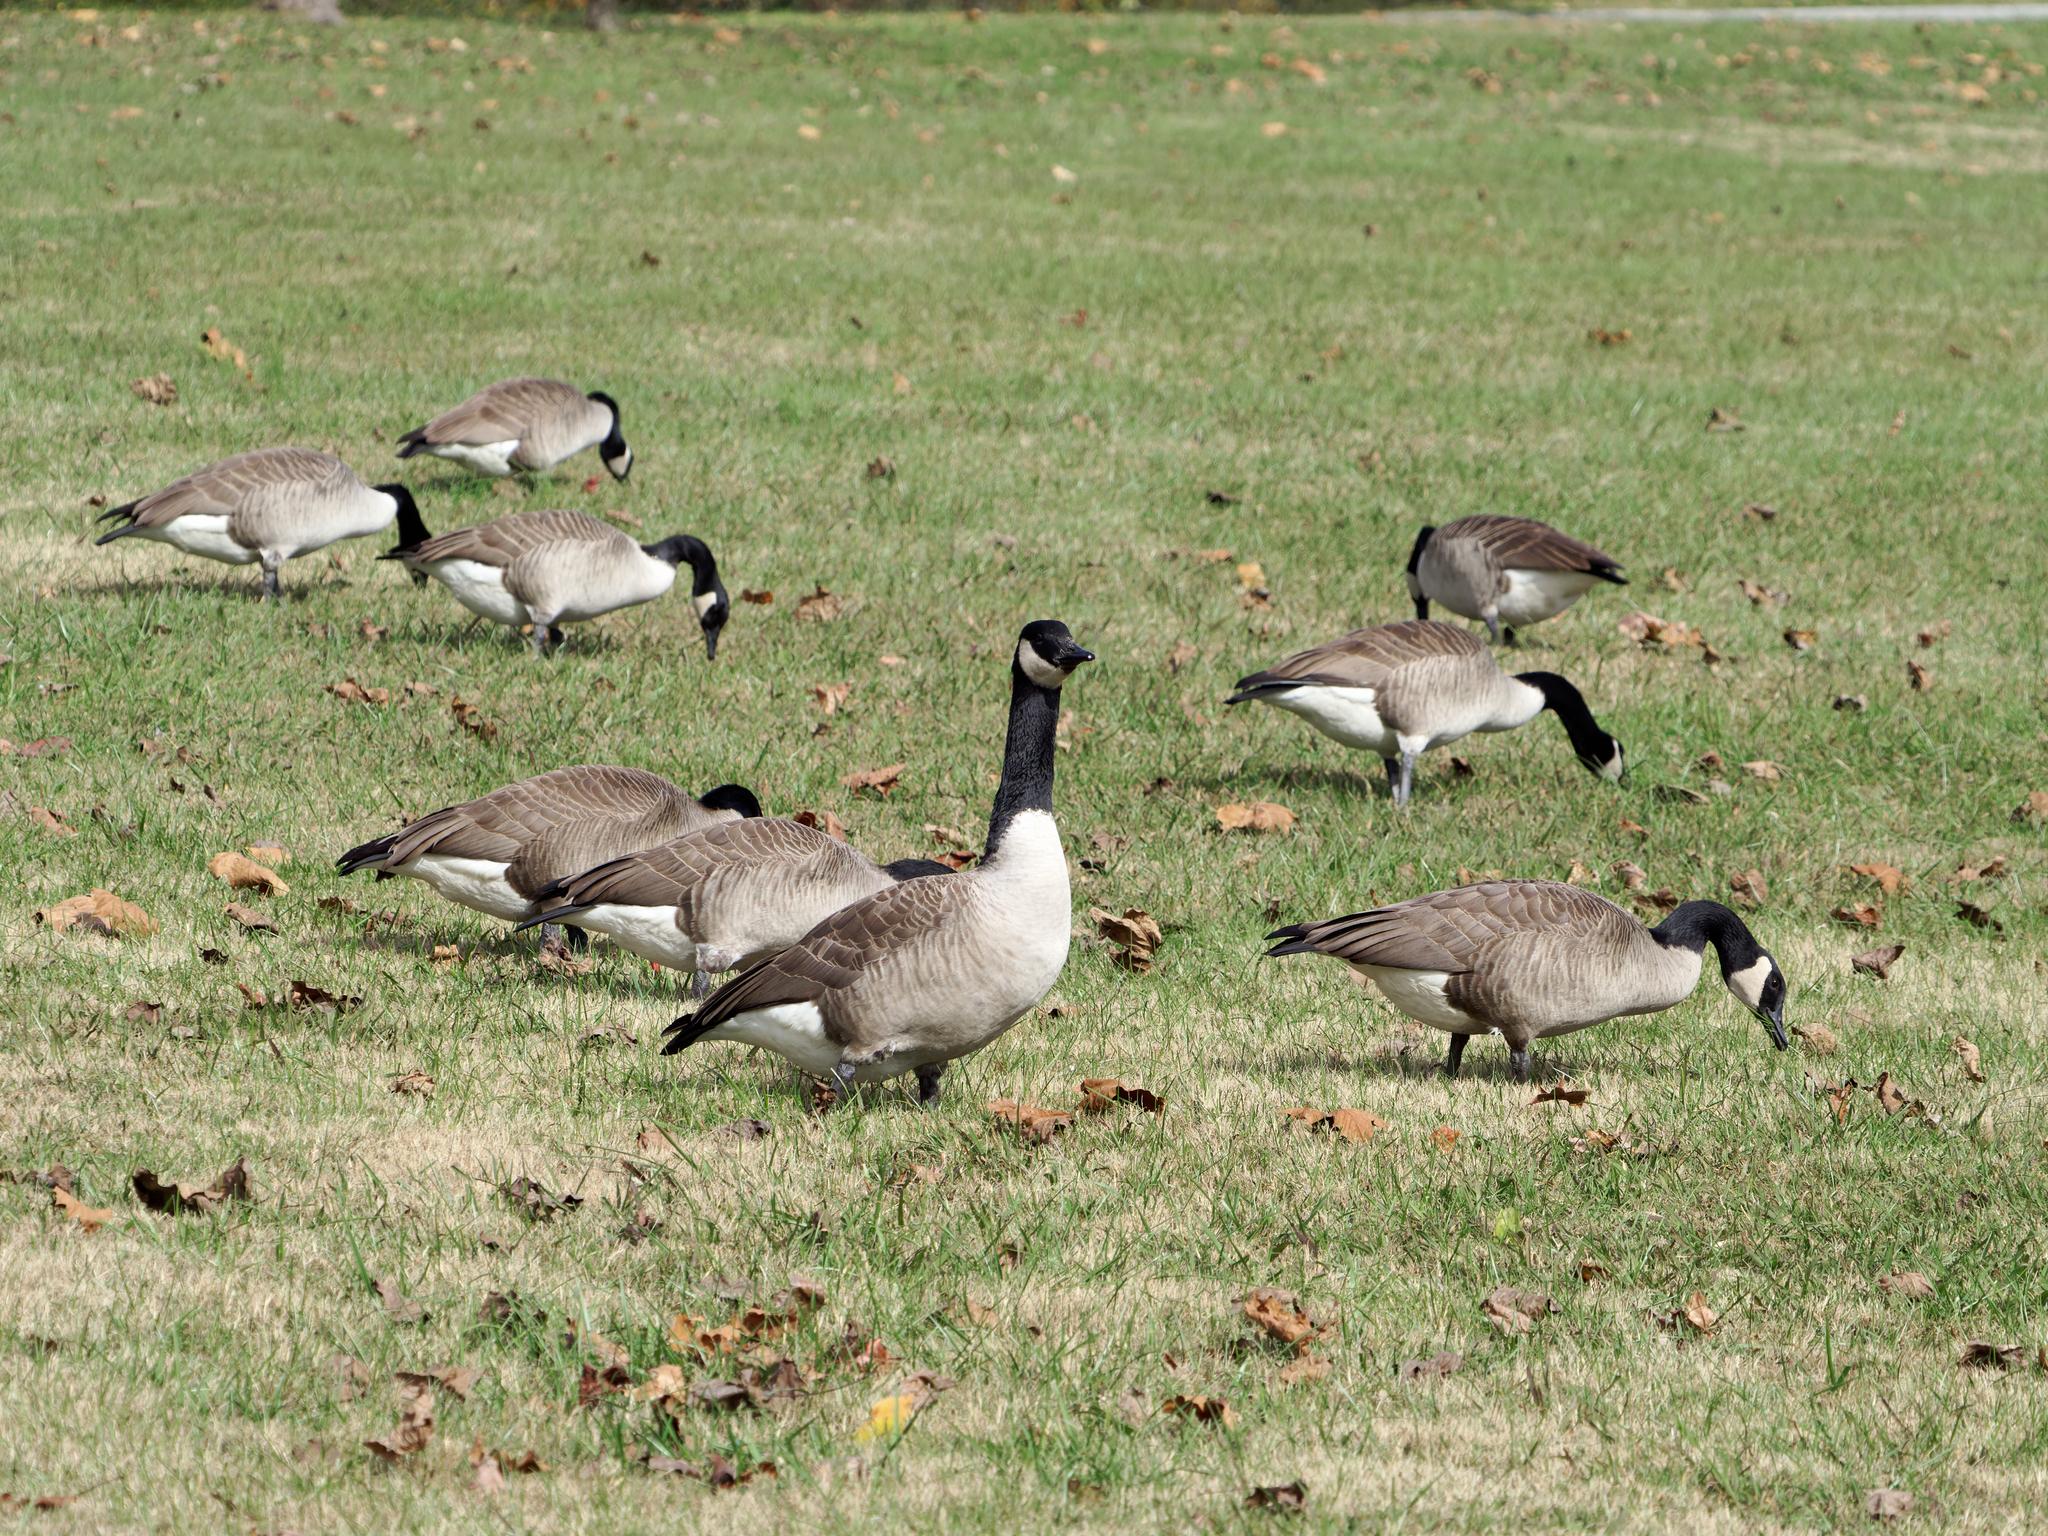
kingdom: Animalia
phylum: Chordata
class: Aves
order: Anseriformes
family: Anatidae
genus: Branta
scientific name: Branta canadensis
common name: Canada goose
